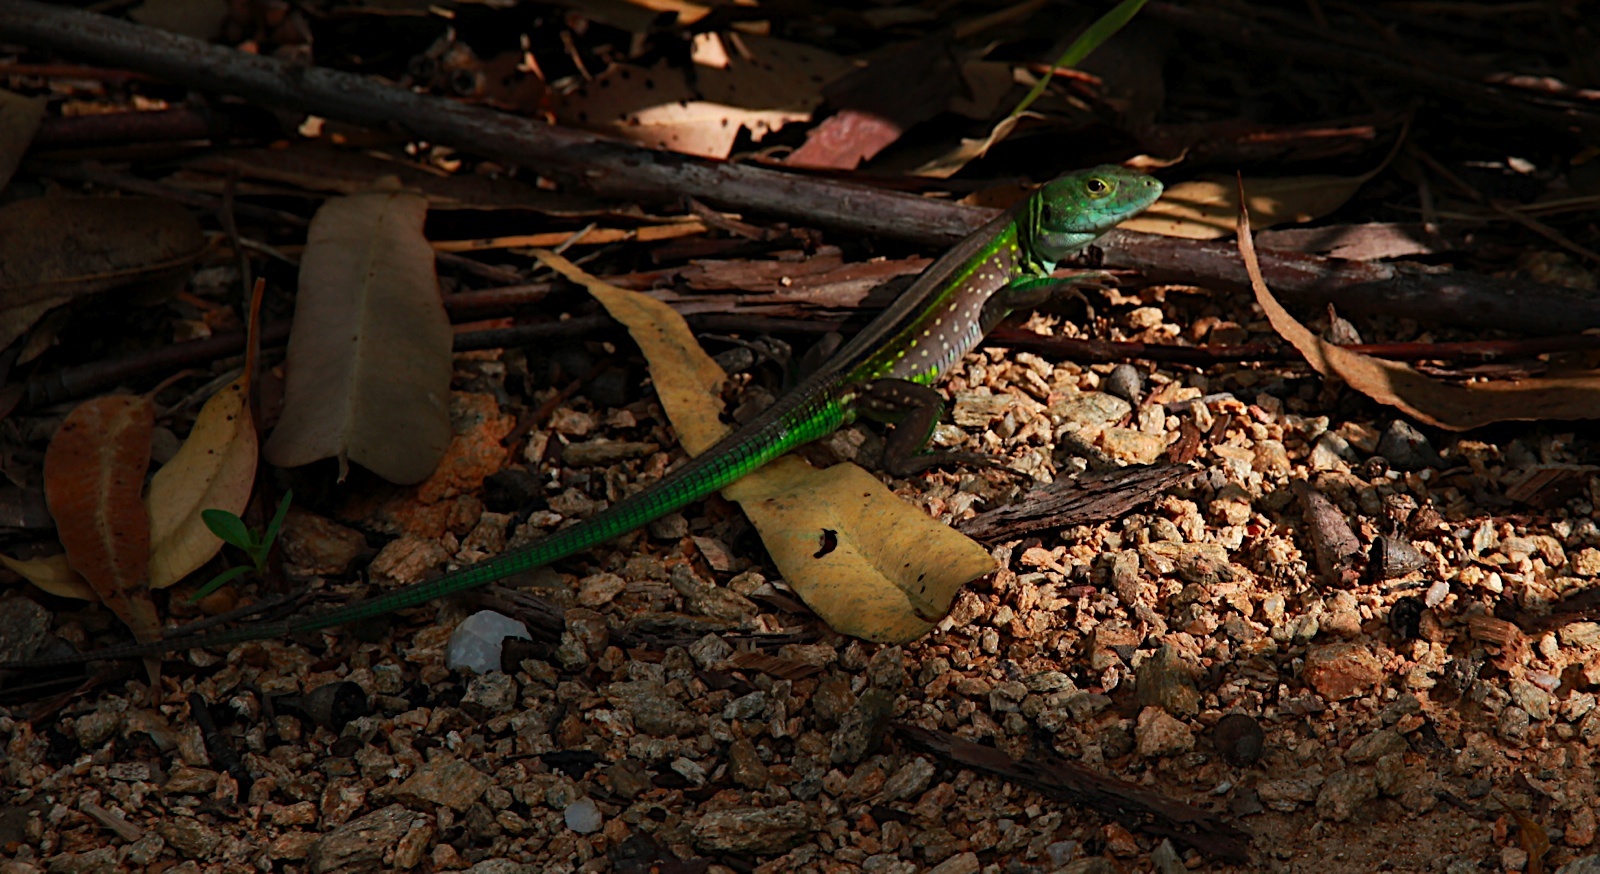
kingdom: Animalia
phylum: Chordata
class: Squamata
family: Teiidae
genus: Cnemidophorus
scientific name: Cnemidophorus lemniscatus
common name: Rainbow whiptail
